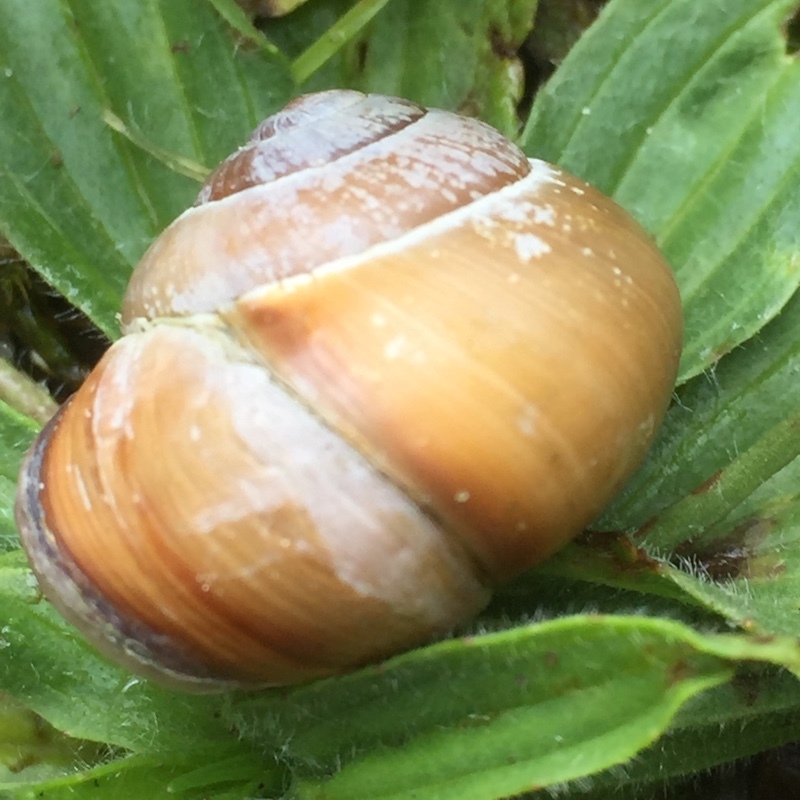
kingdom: Animalia
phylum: Mollusca
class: Gastropoda
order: Stylommatophora
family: Helicidae
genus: Cepaea
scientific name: Cepaea nemoralis
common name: Grovesnail
